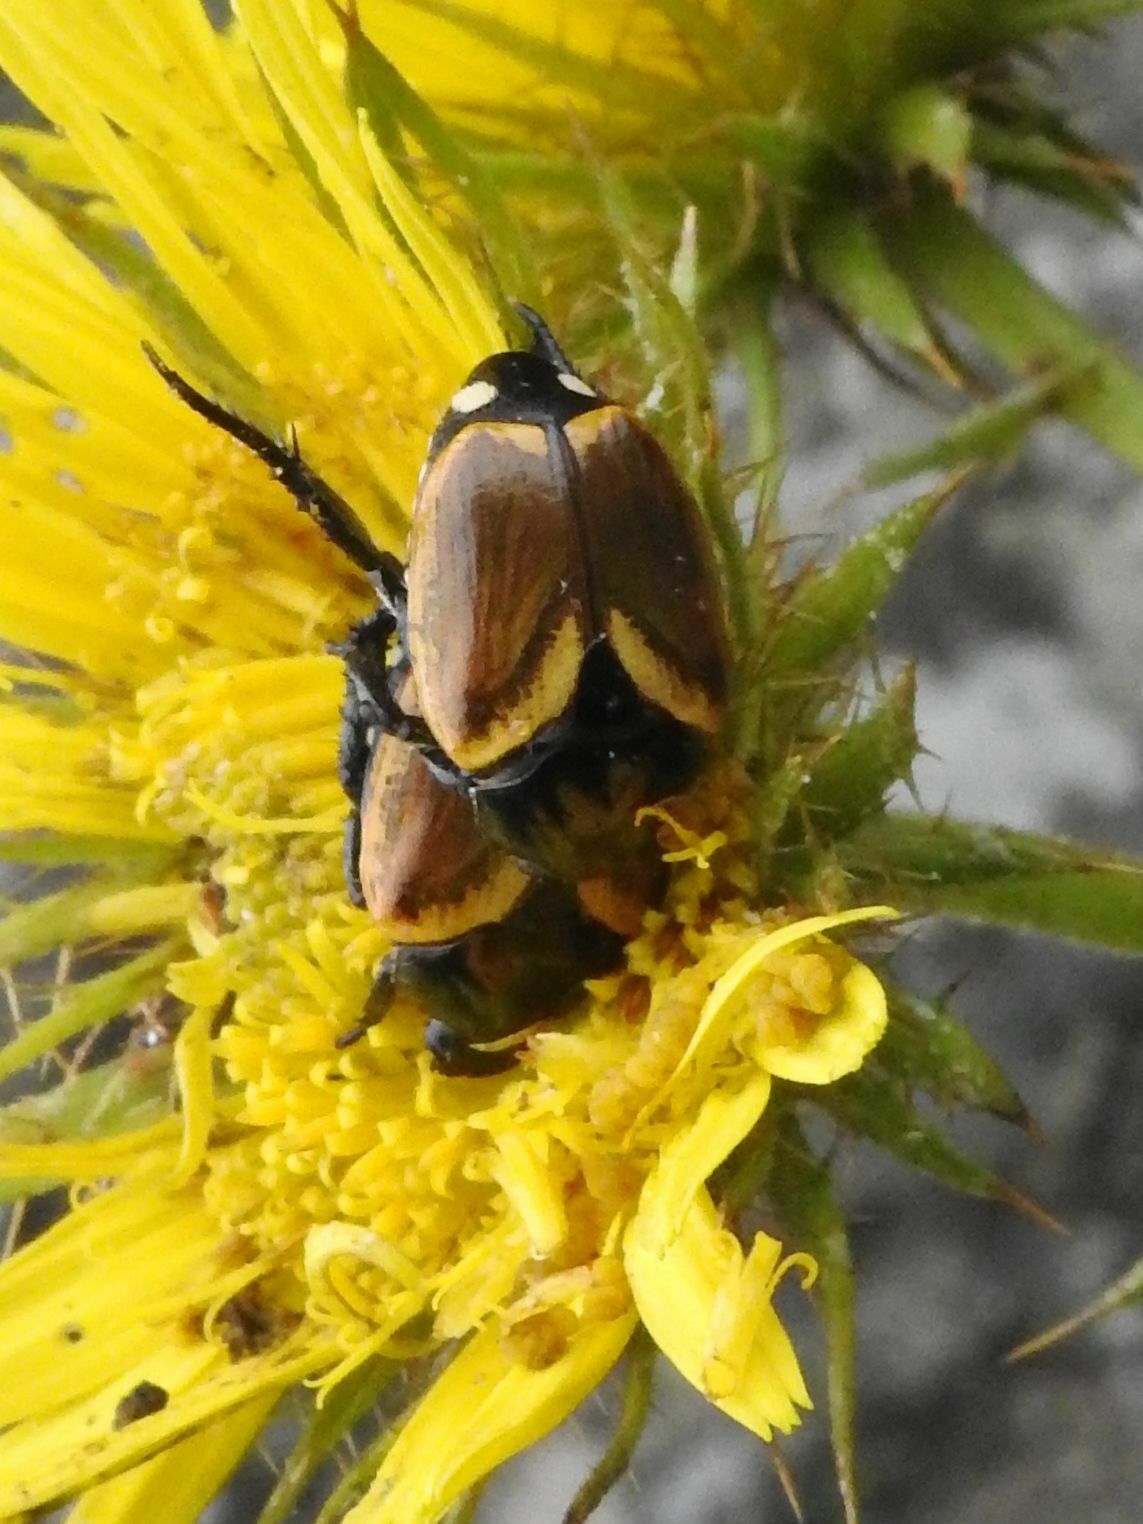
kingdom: Animalia
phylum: Arthropoda
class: Insecta
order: Coleoptera
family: Scarabaeidae
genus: Popillia
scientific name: Popillia bipunctata
